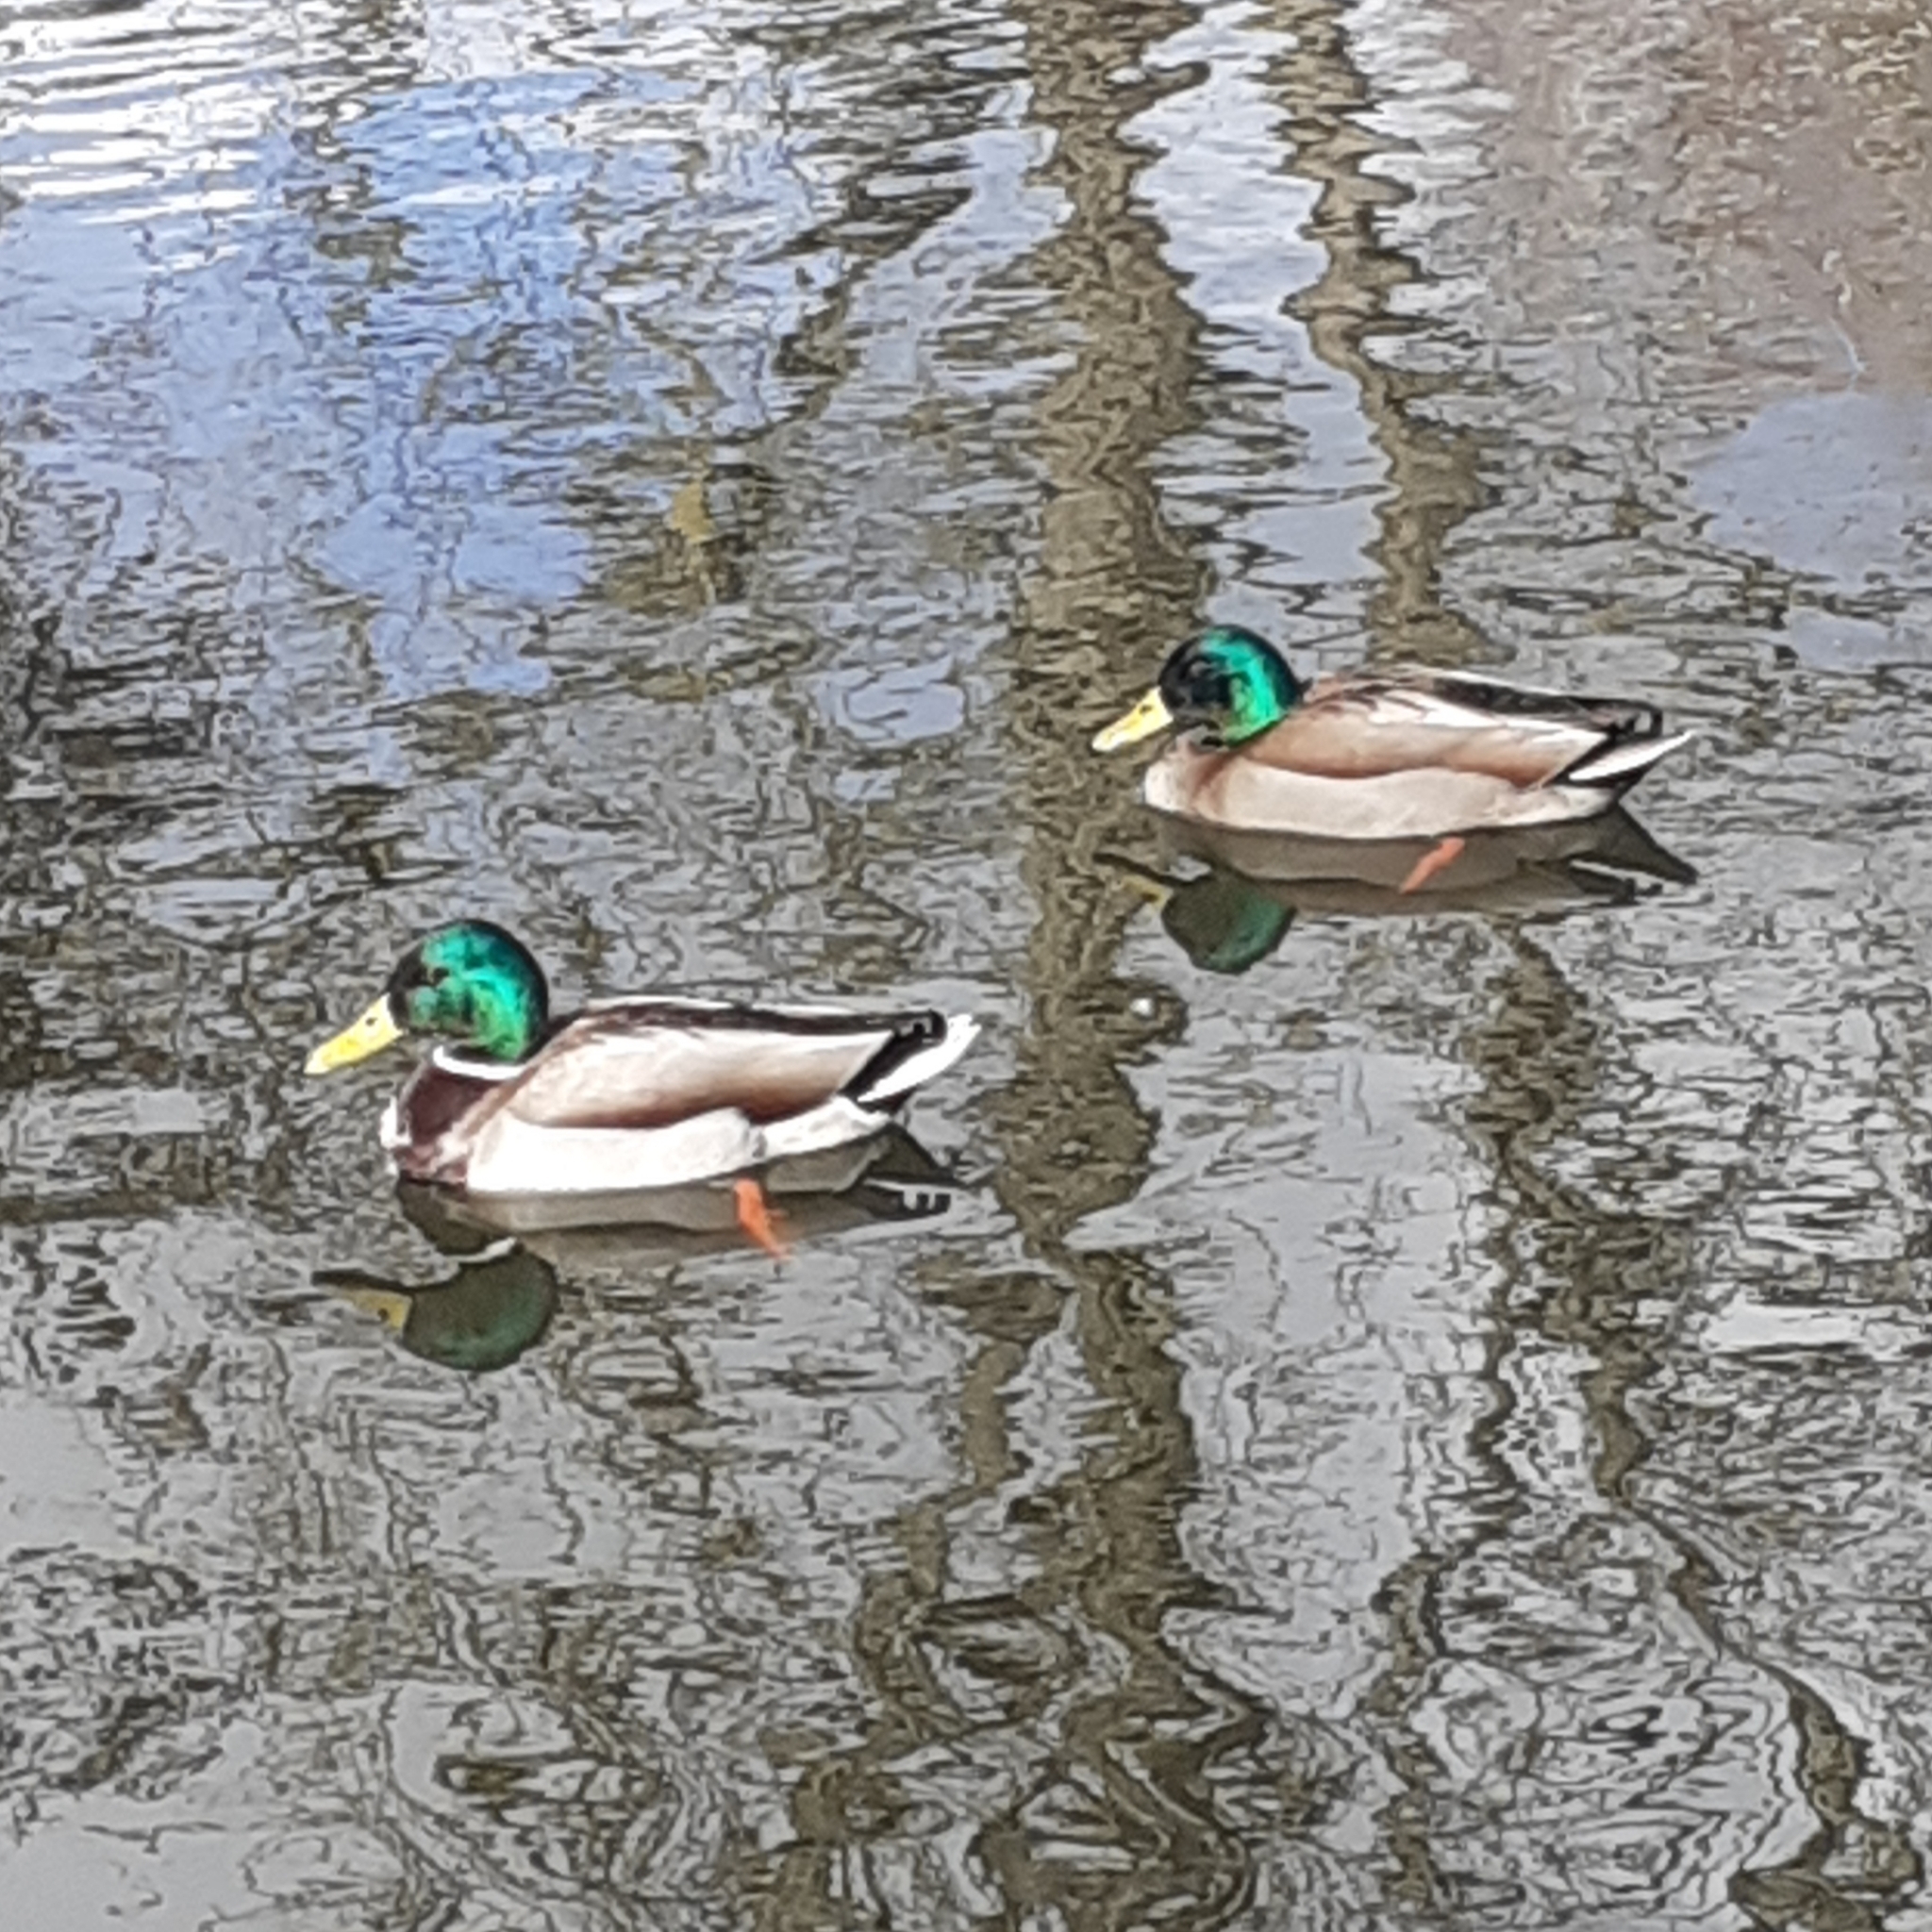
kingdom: Animalia
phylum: Chordata
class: Aves
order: Anseriformes
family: Anatidae
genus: Anas
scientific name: Anas platyrhynchos
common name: Mallard
